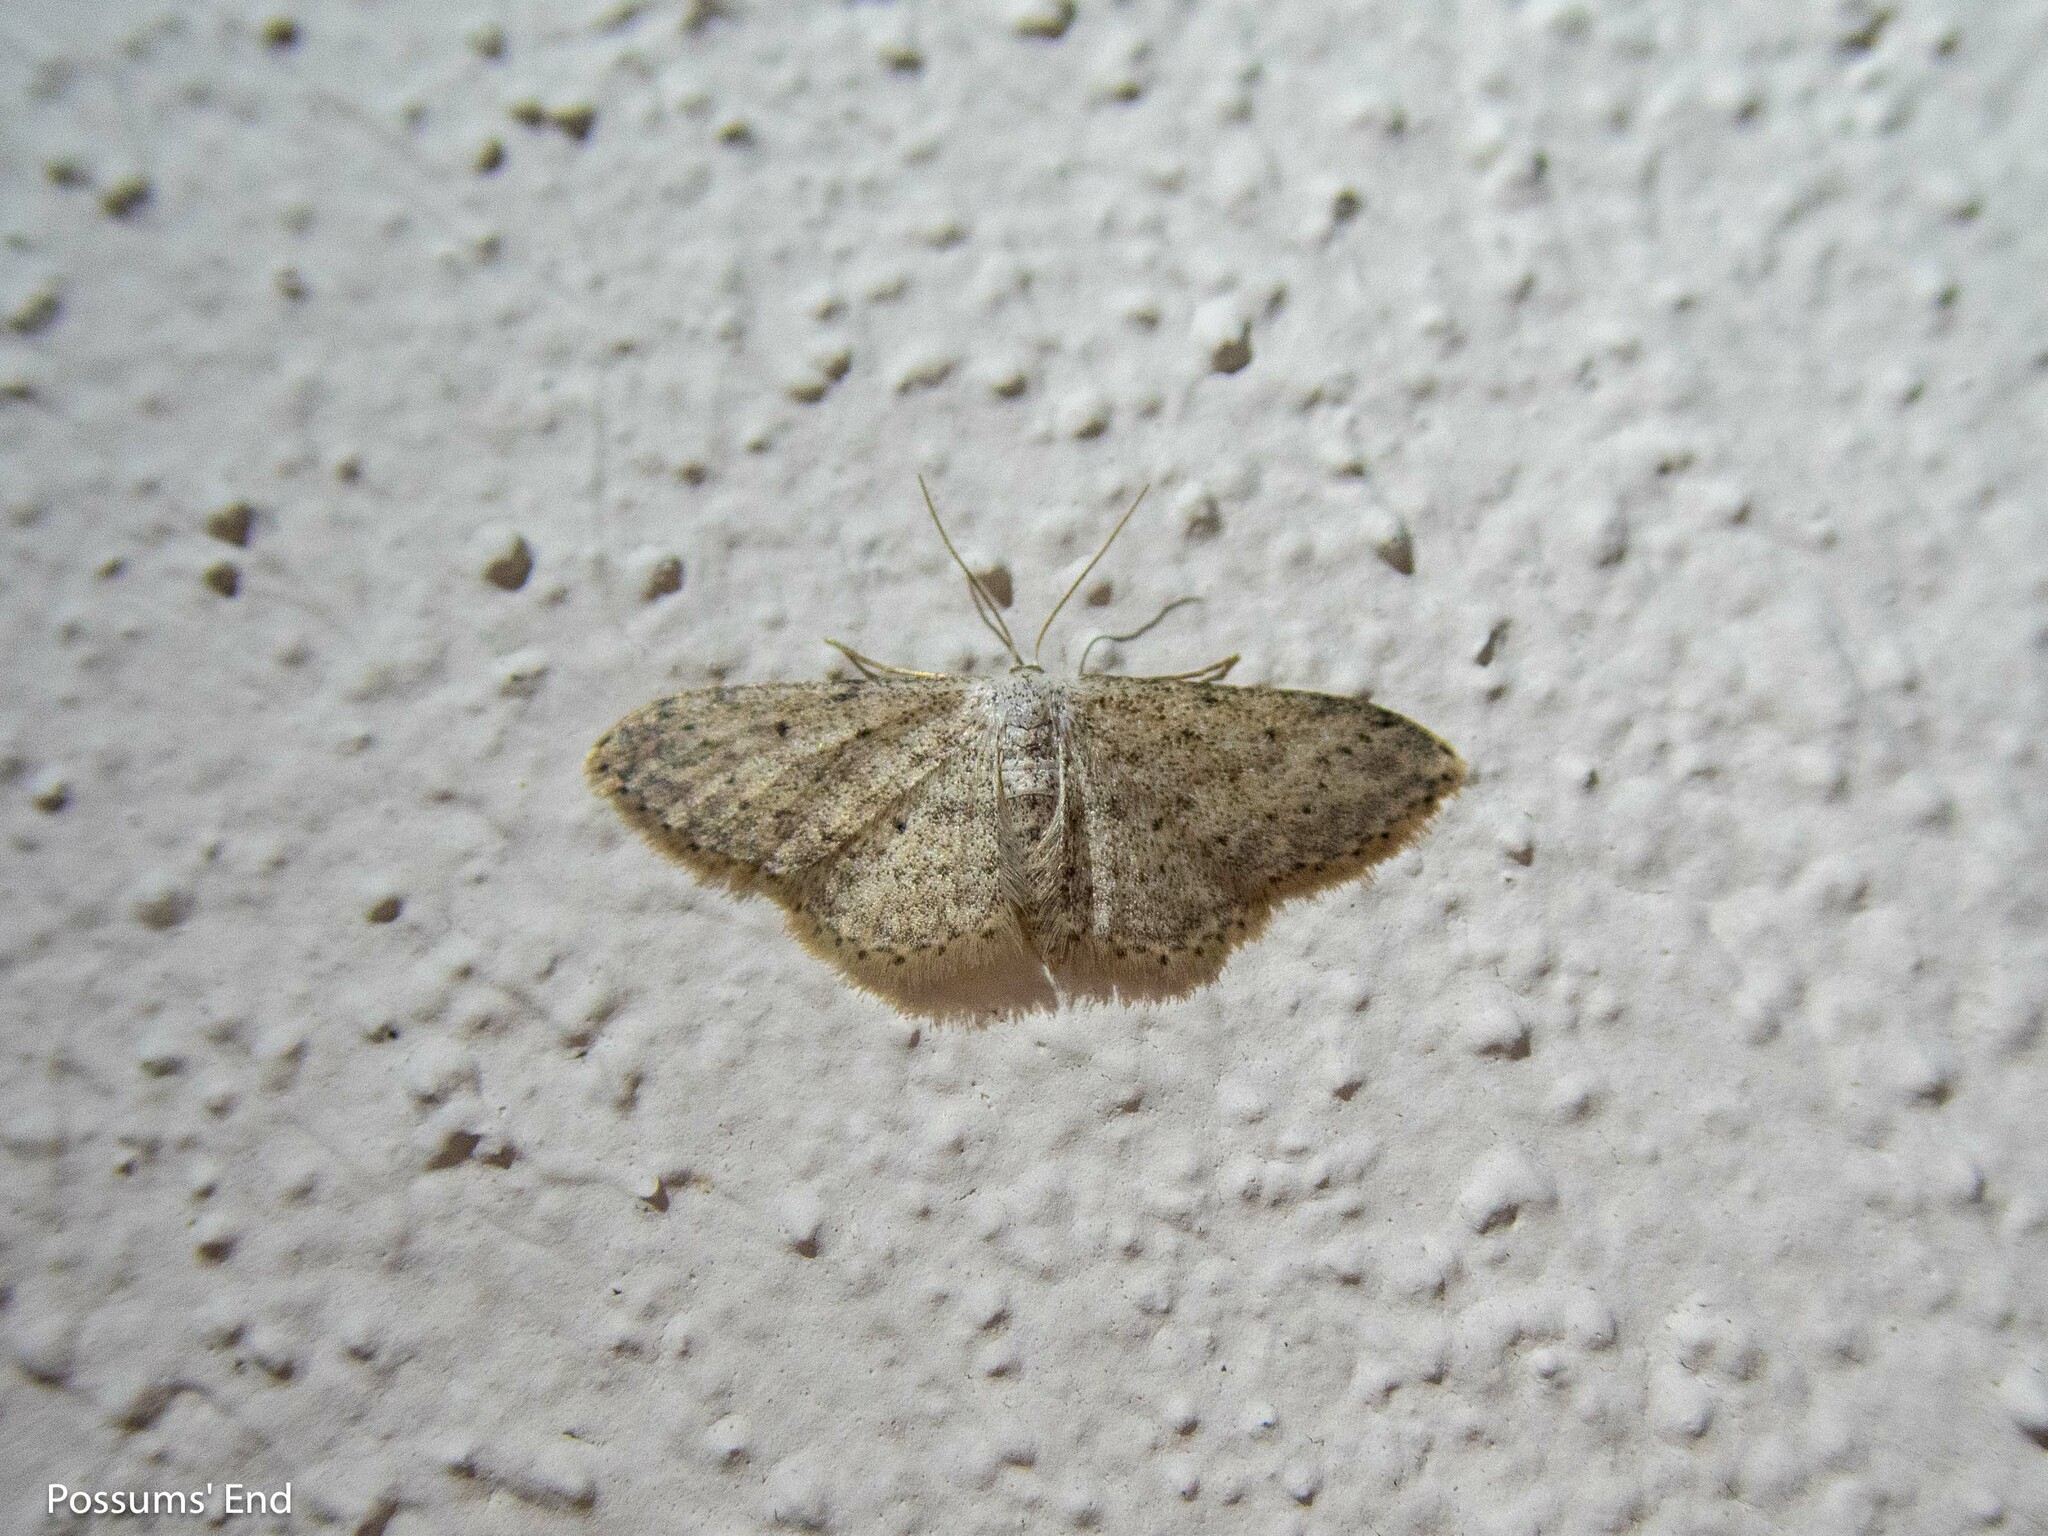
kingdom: Animalia
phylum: Arthropoda
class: Insecta
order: Lepidoptera
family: Geometridae
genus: Idaea
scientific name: Idaea seriata
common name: Small dusty wave
